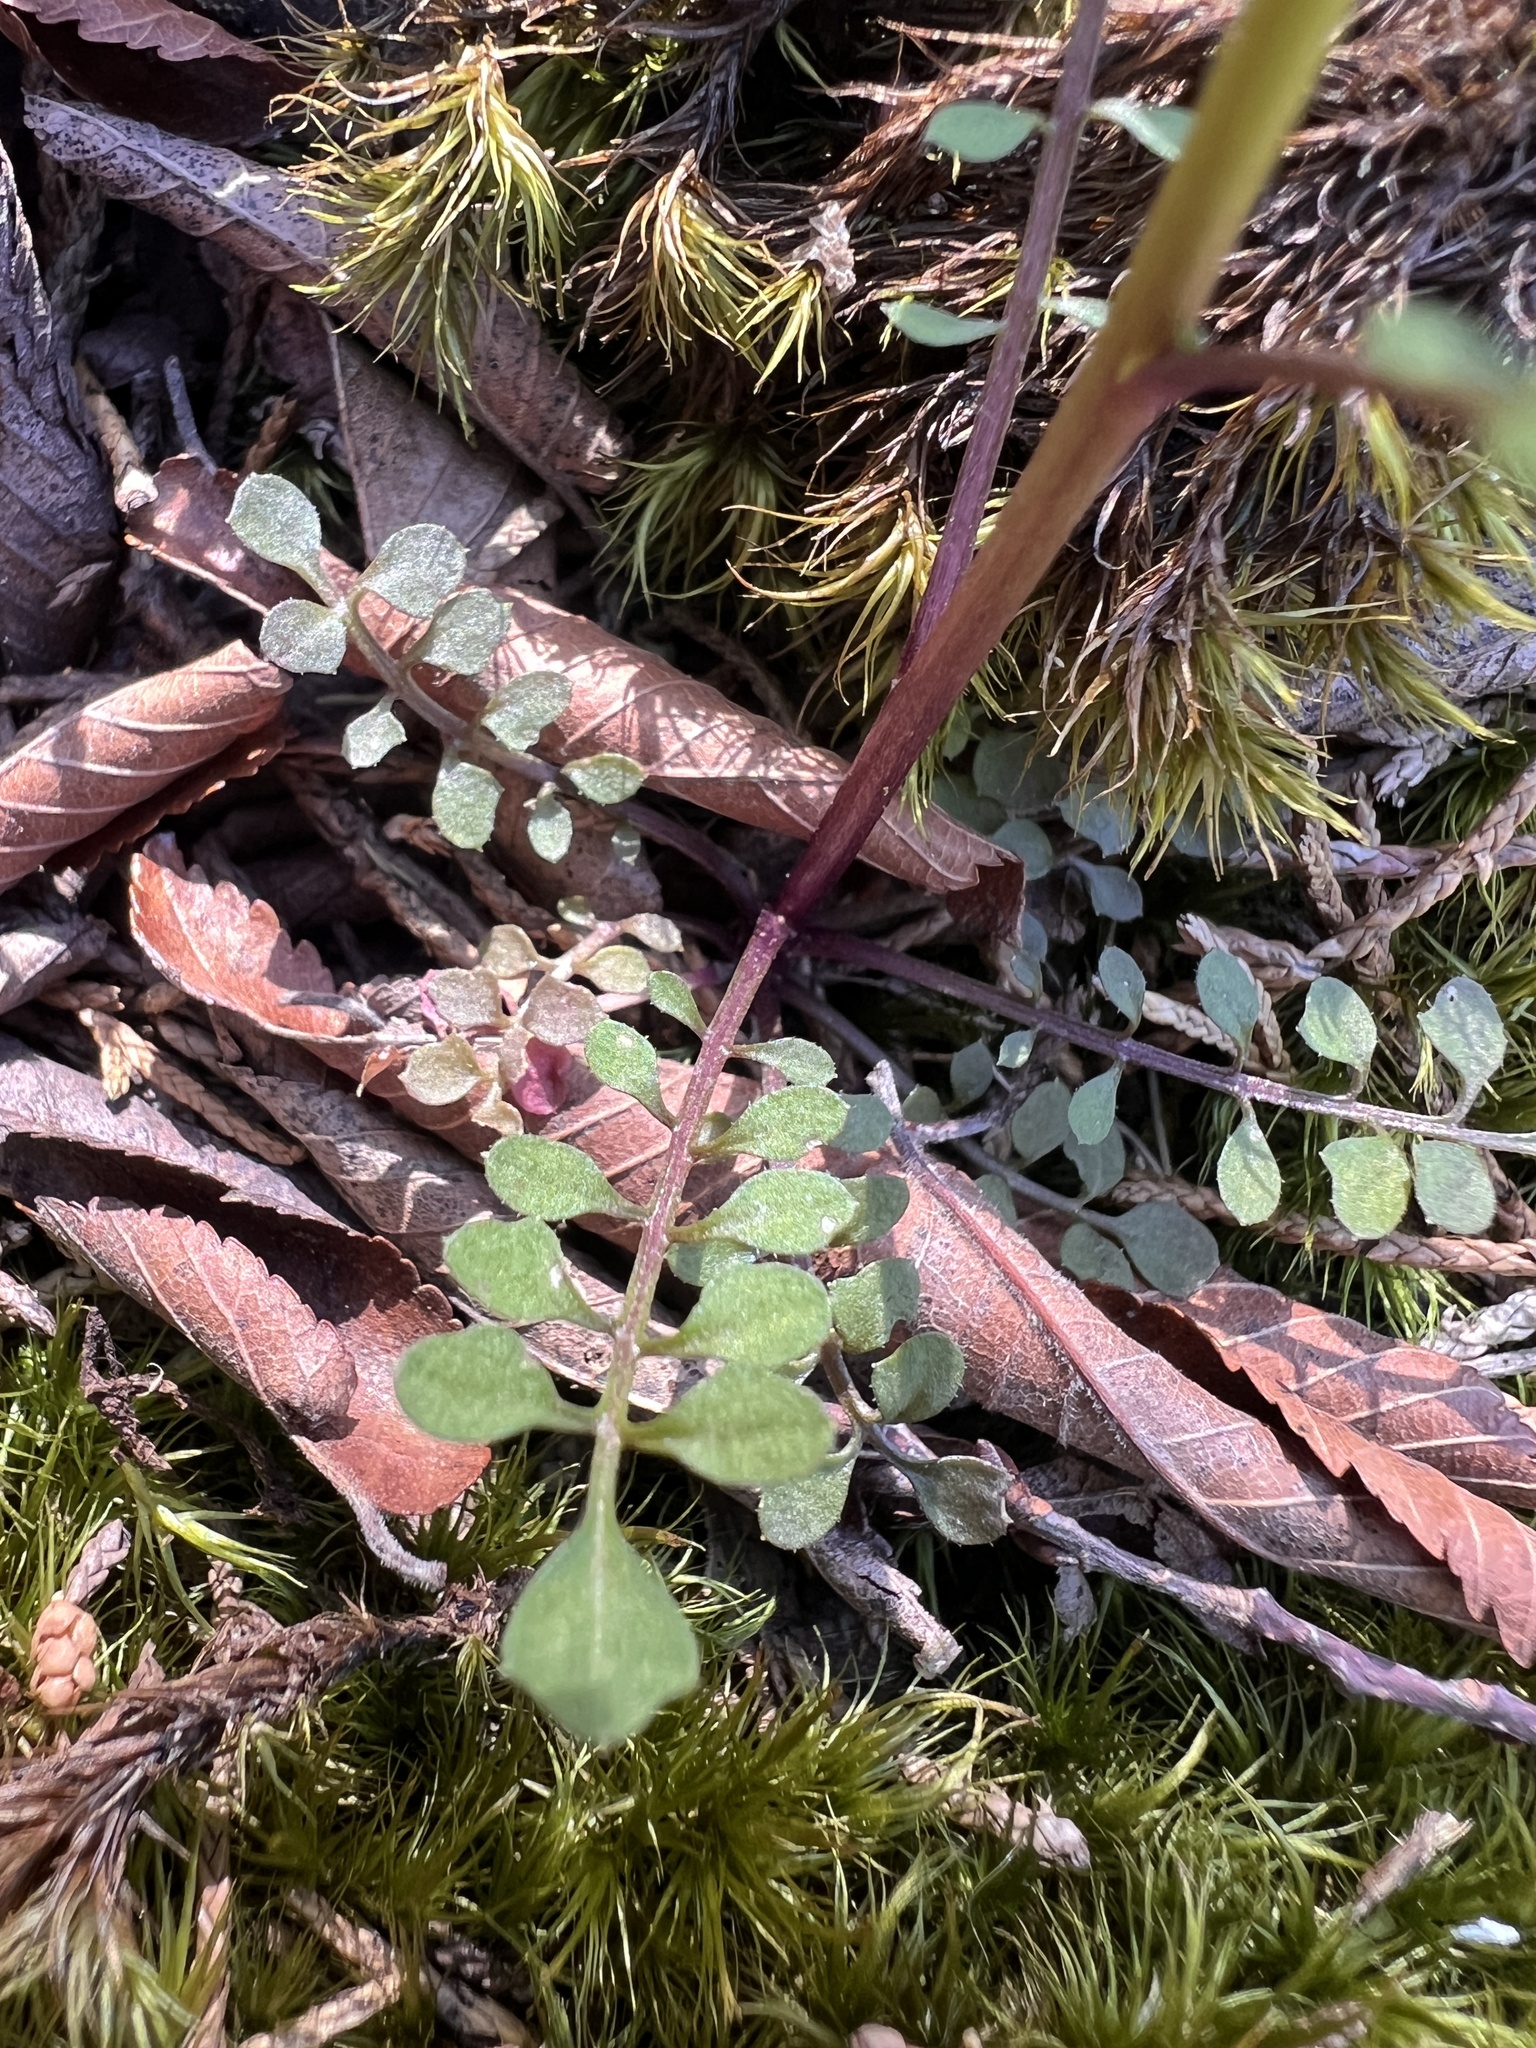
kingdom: Plantae
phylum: Tracheophyta
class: Magnoliopsida
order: Brassicales
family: Brassicaceae
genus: Cardamine
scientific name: Cardamine parviflora
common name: Sand bittercress
